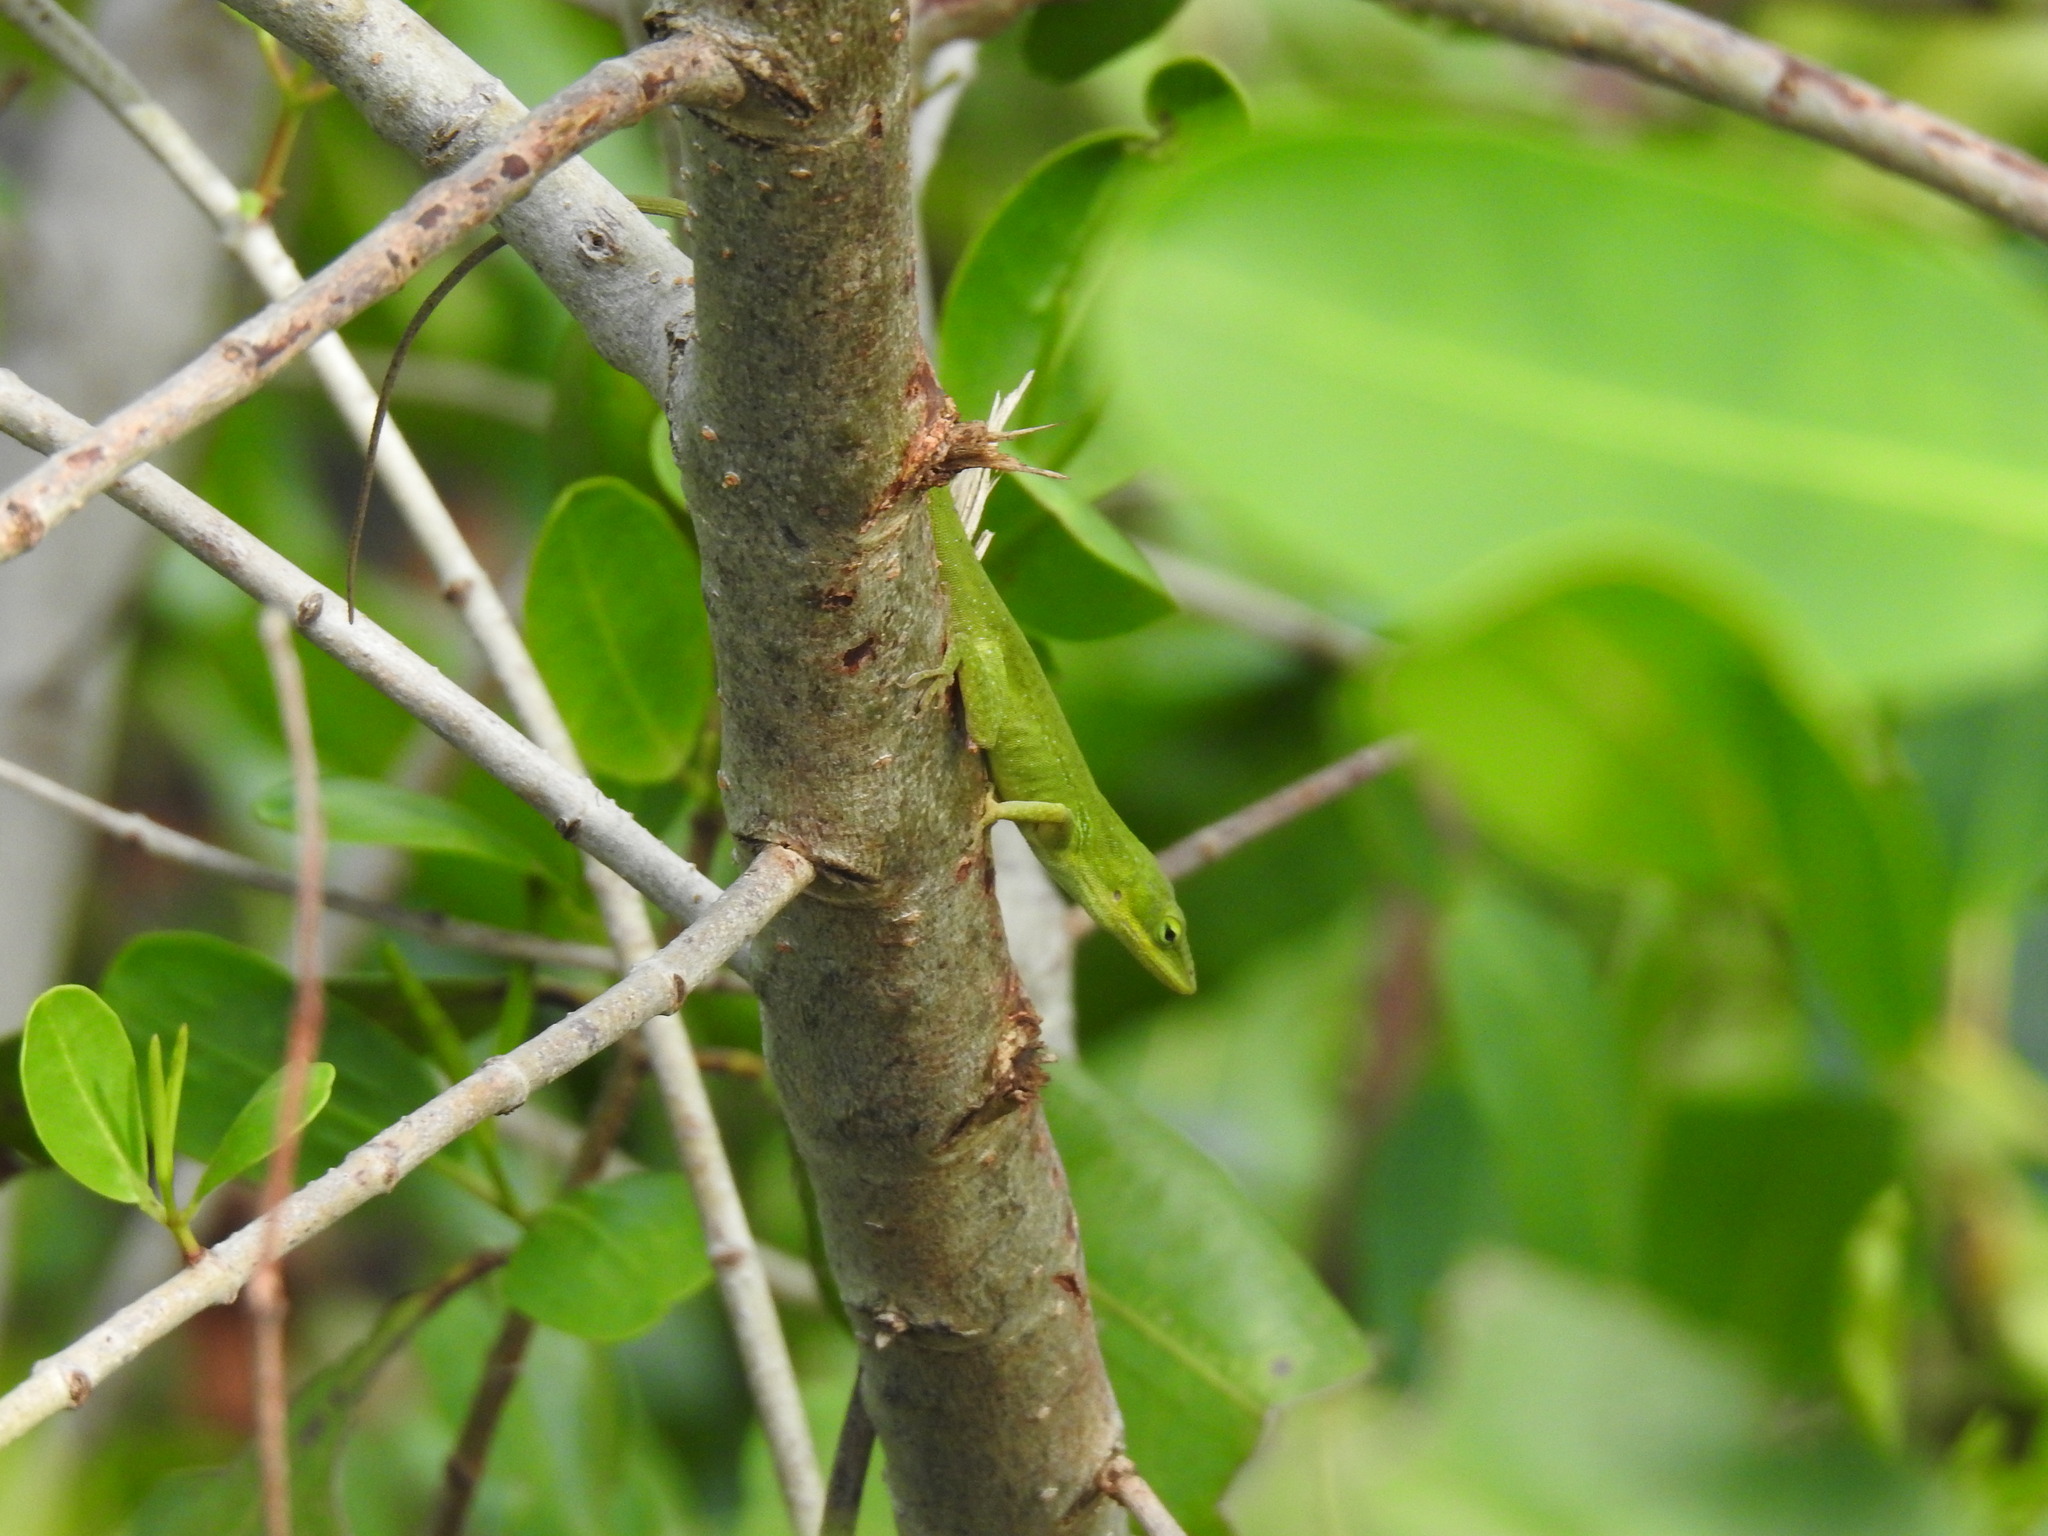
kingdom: Animalia
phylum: Chordata
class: Squamata
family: Dactyloidae
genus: Anolis
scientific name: Anolis carolinensis
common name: Green anole
